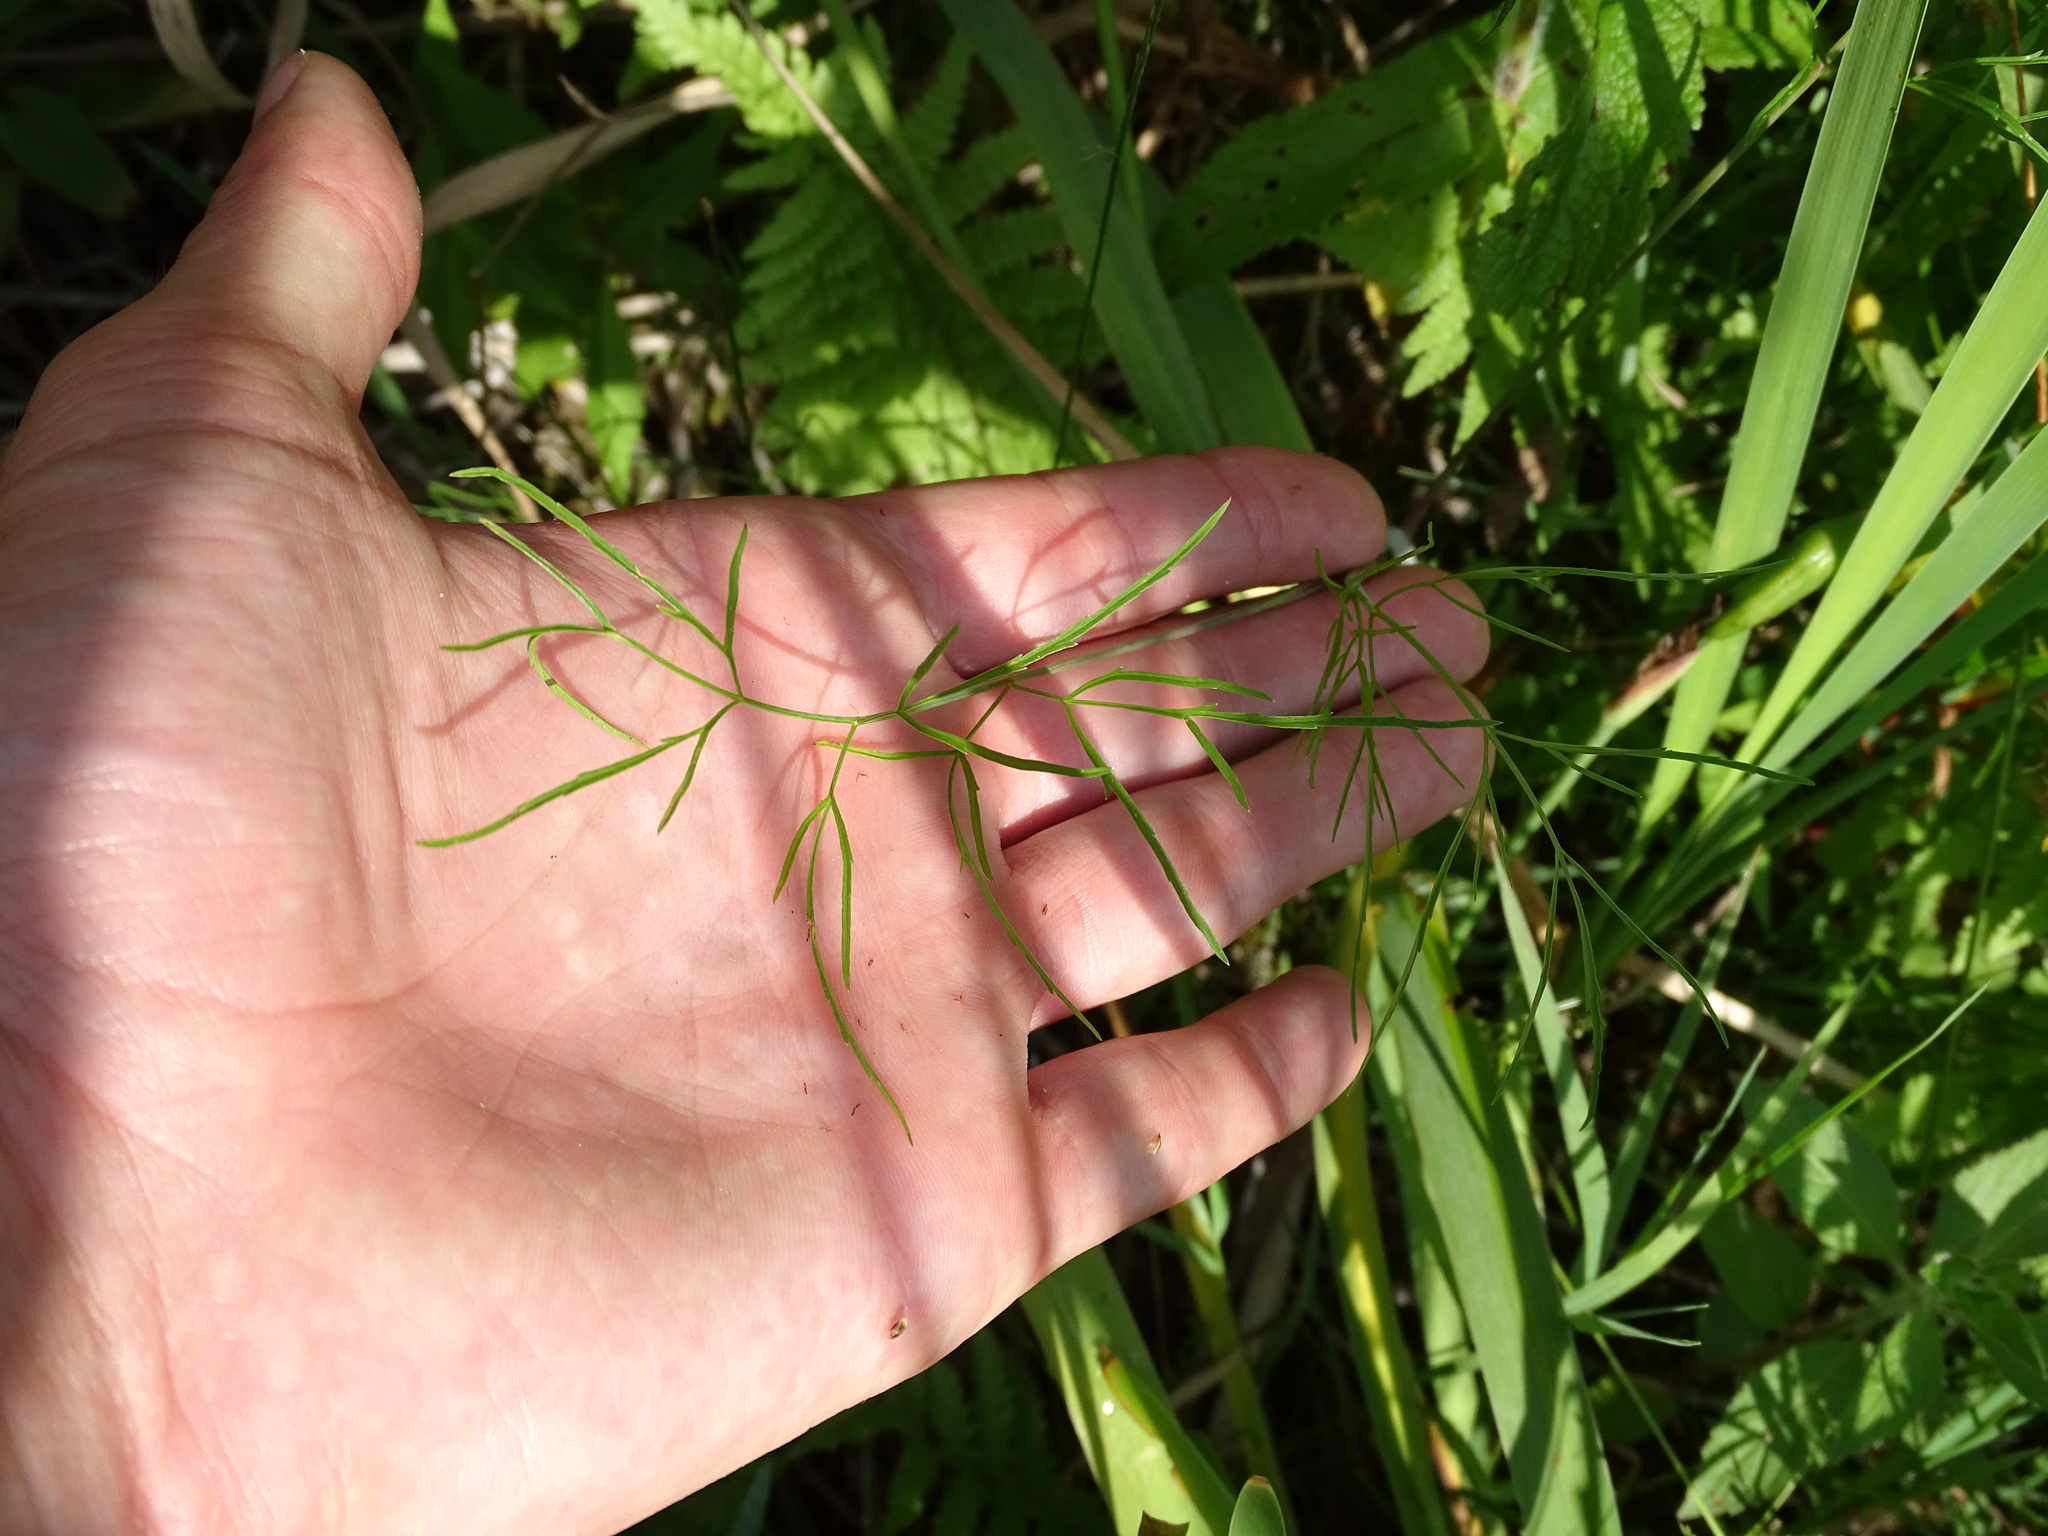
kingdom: Plantae
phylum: Tracheophyta
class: Magnoliopsida
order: Apiales
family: Apiaceae
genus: Cicuta
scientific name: Cicuta bulbifera
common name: Bulb-bearing water-hemlock
